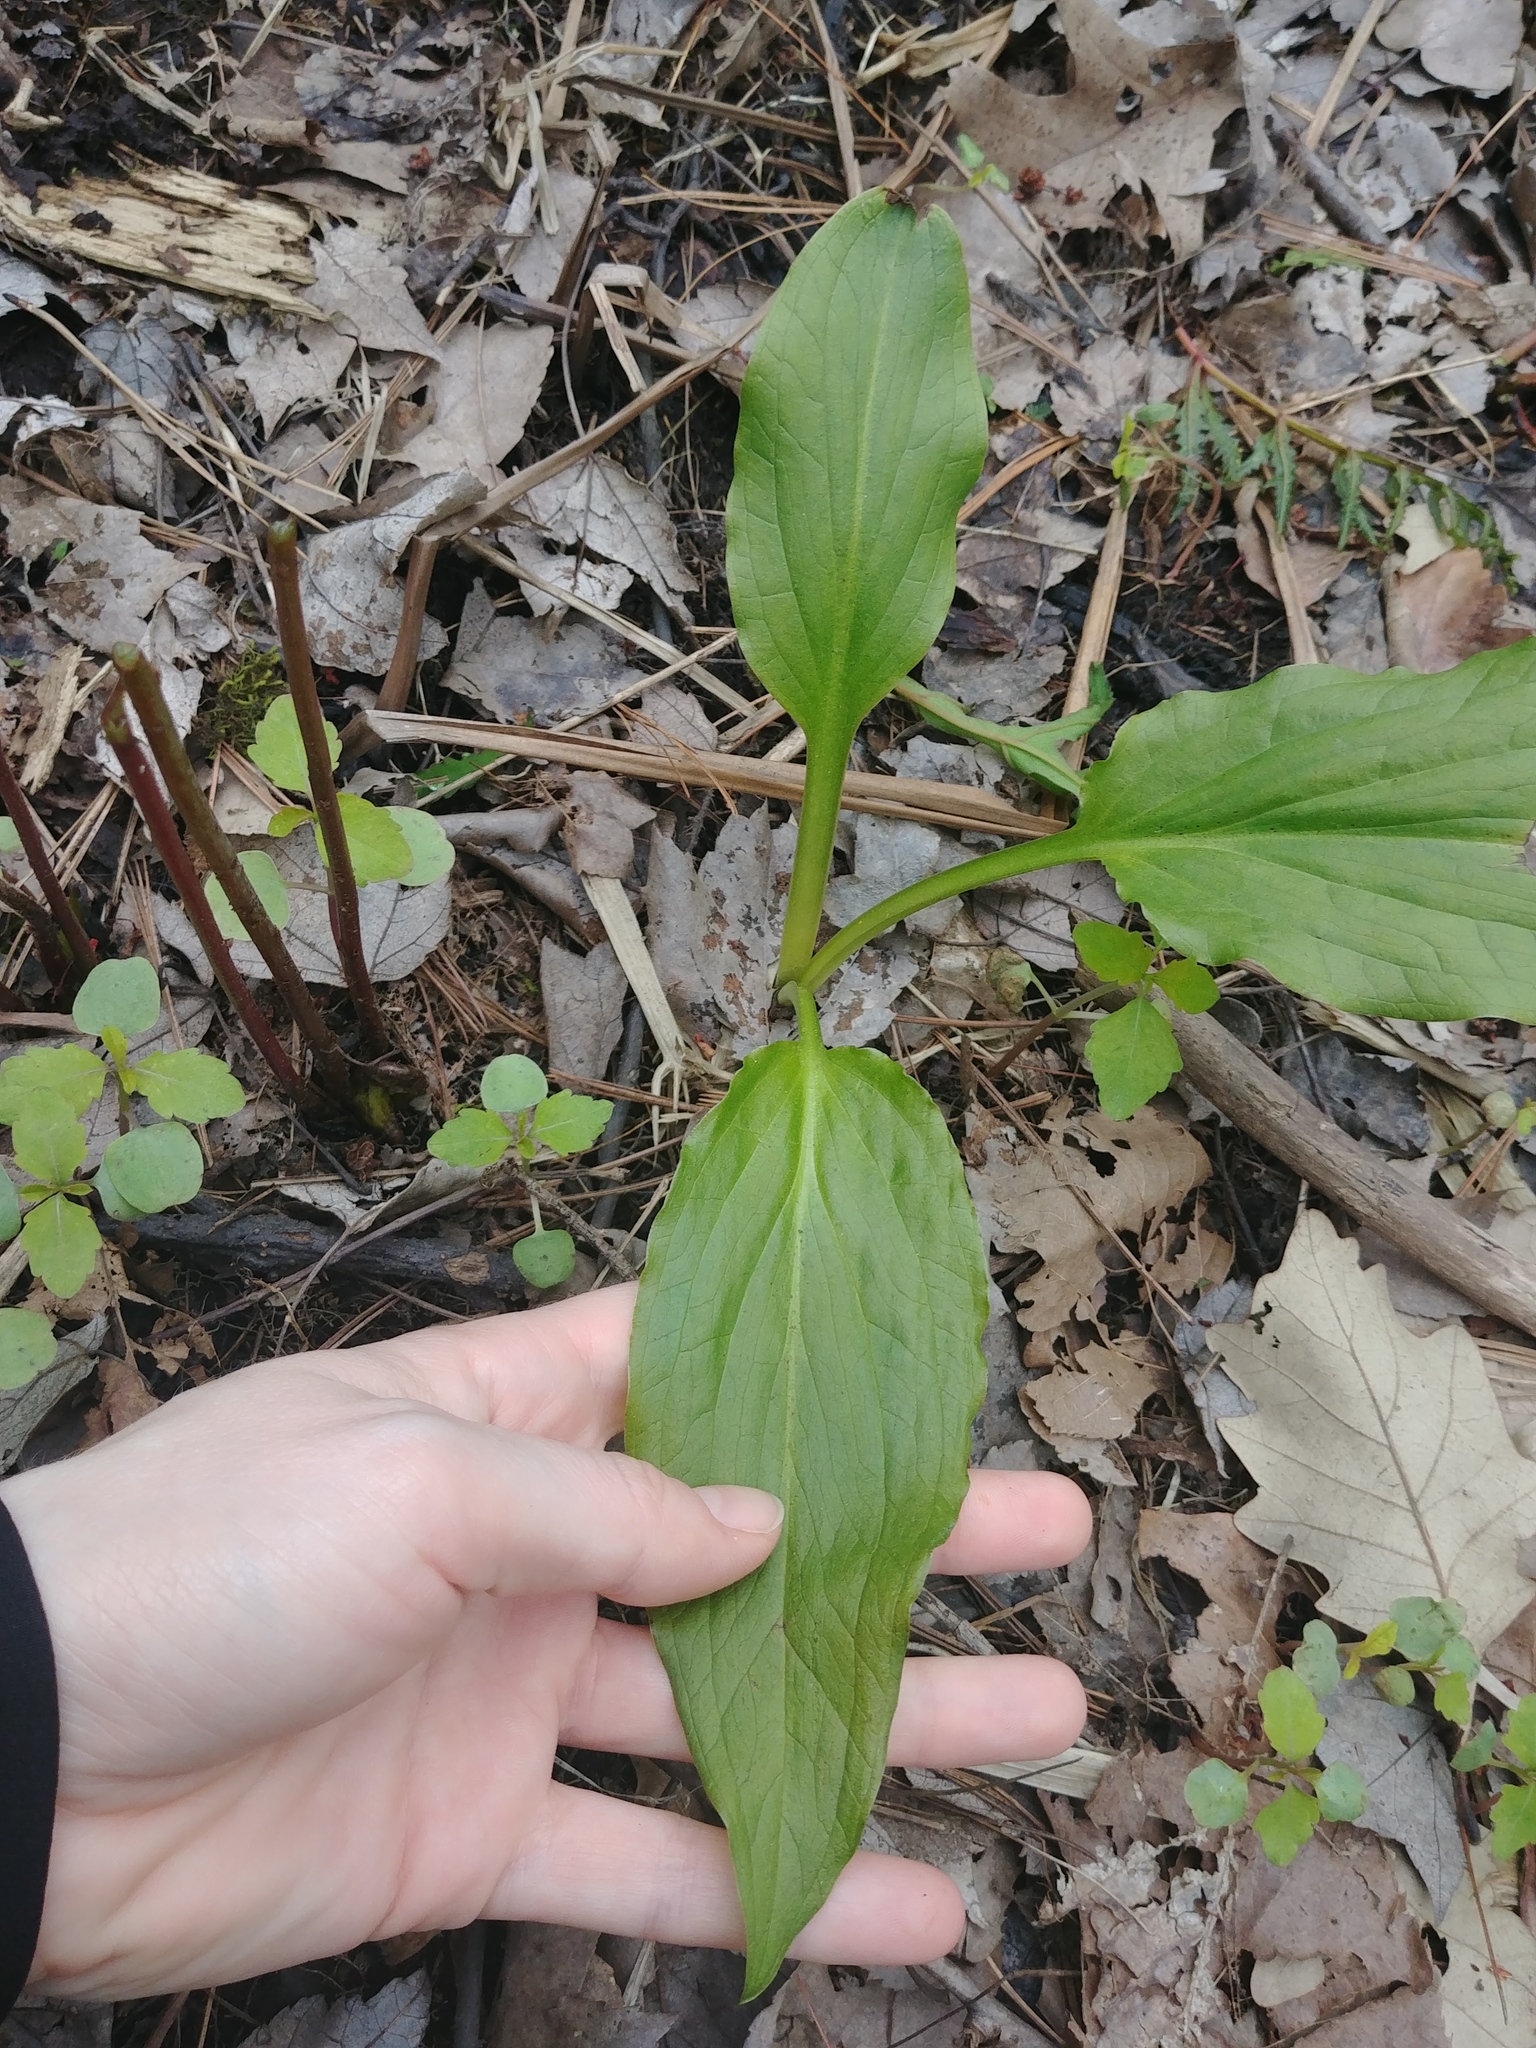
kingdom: Plantae
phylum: Tracheophyta
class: Liliopsida
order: Alismatales
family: Araceae
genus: Symplocarpus
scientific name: Symplocarpus foetidus
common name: Eastern skunk cabbage
